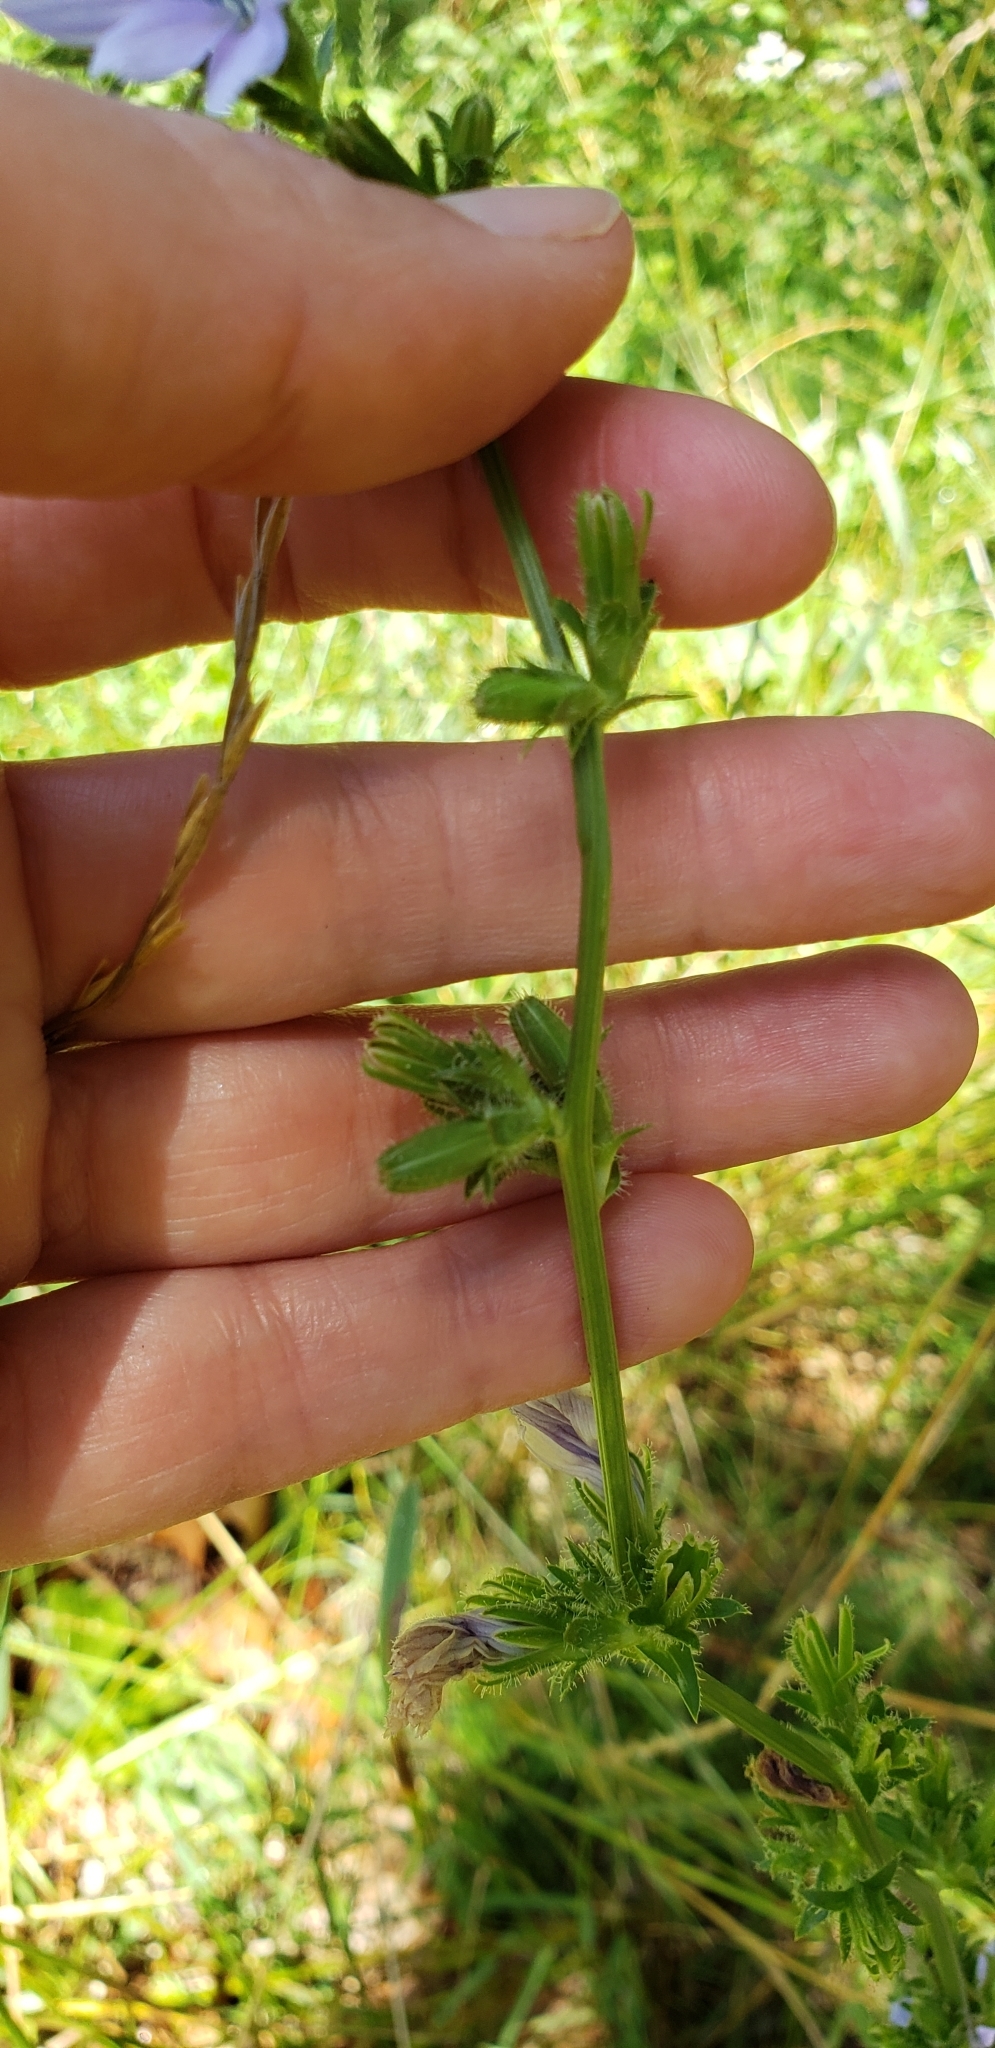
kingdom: Plantae
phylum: Tracheophyta
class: Magnoliopsida
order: Asterales
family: Asteraceae
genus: Cichorium
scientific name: Cichorium intybus
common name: Chicory
